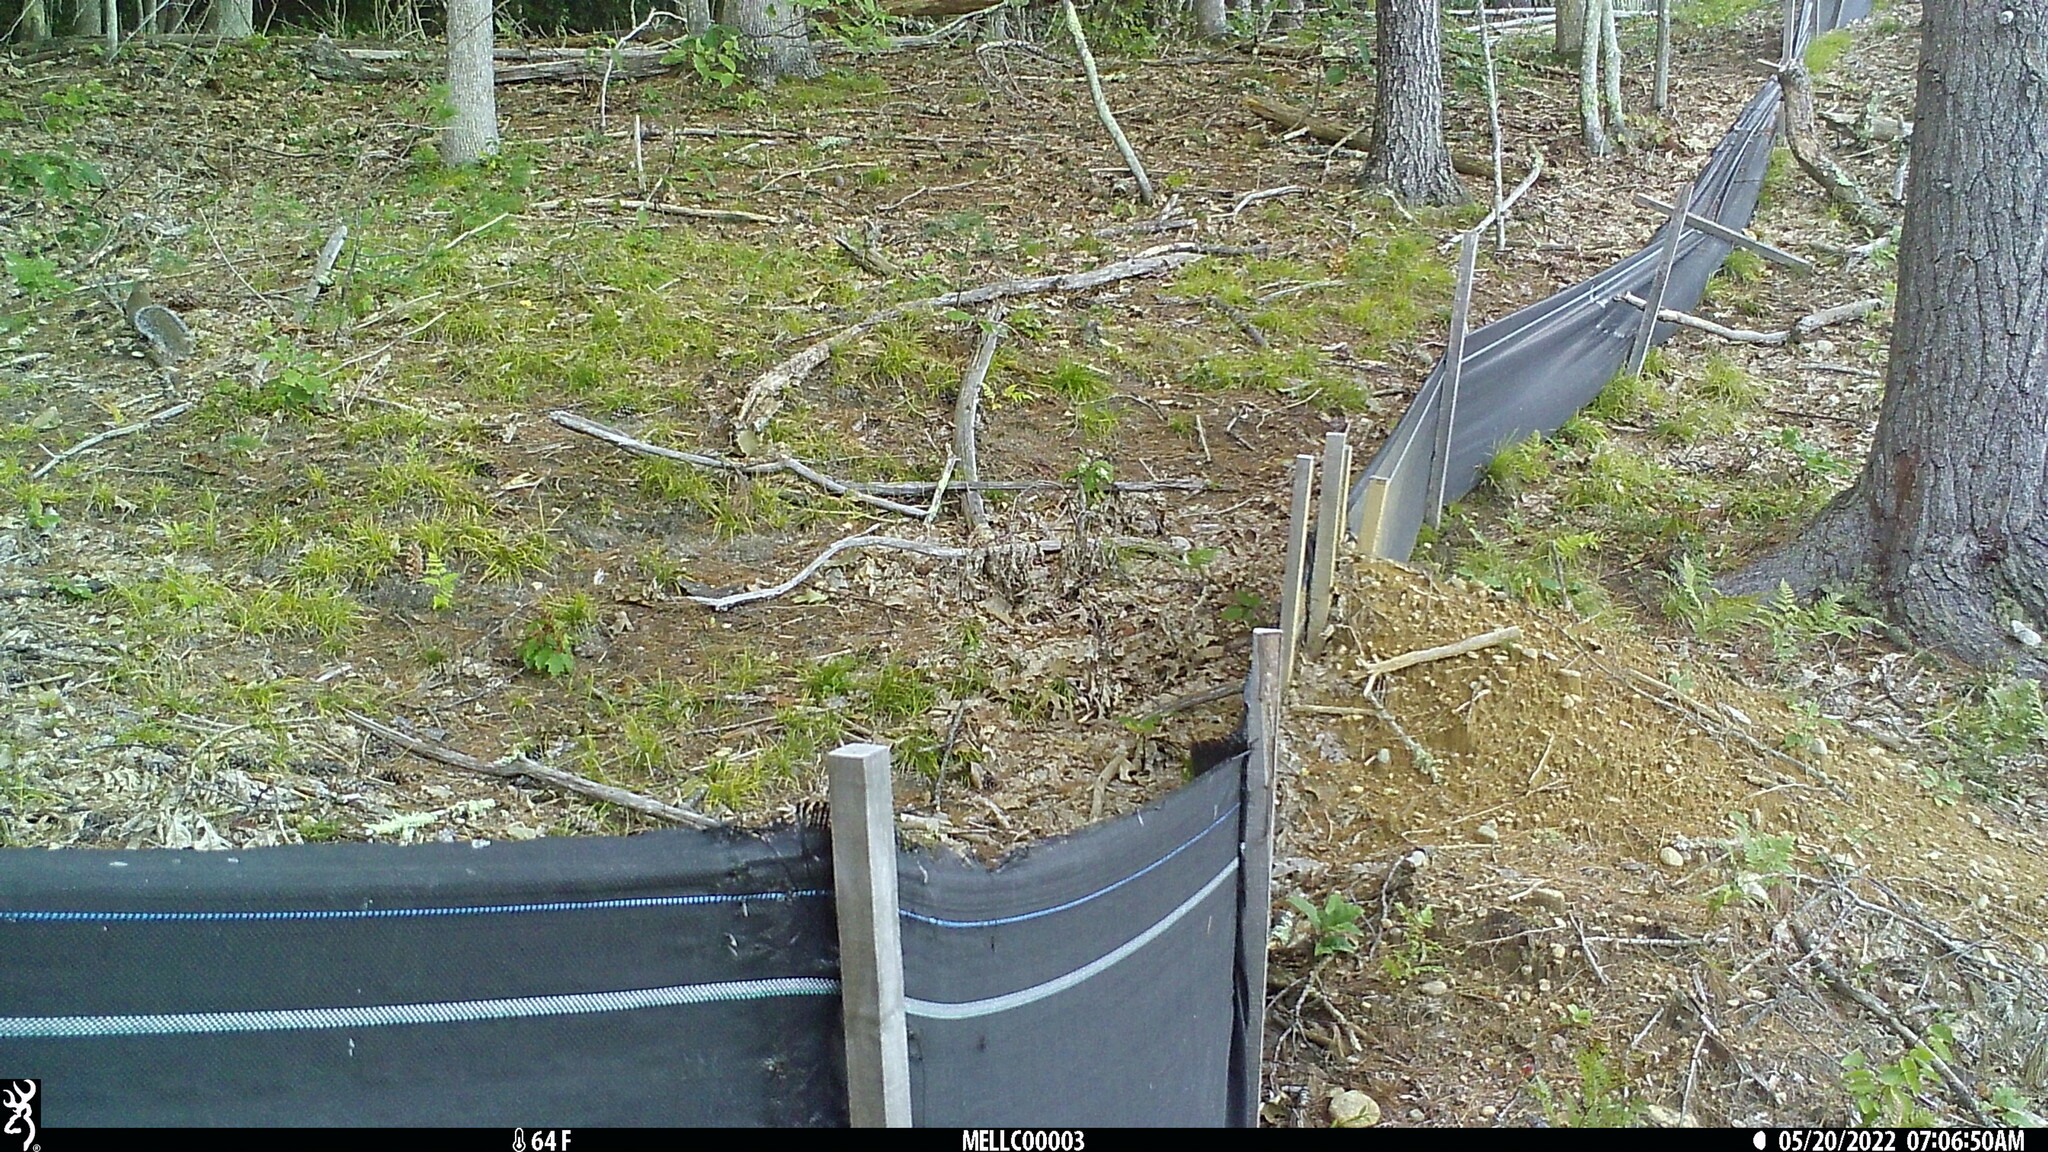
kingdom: Animalia
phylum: Chordata
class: Mammalia
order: Rodentia
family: Sciuridae
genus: Sciurus
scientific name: Sciurus carolinensis
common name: Eastern gray squirrel
